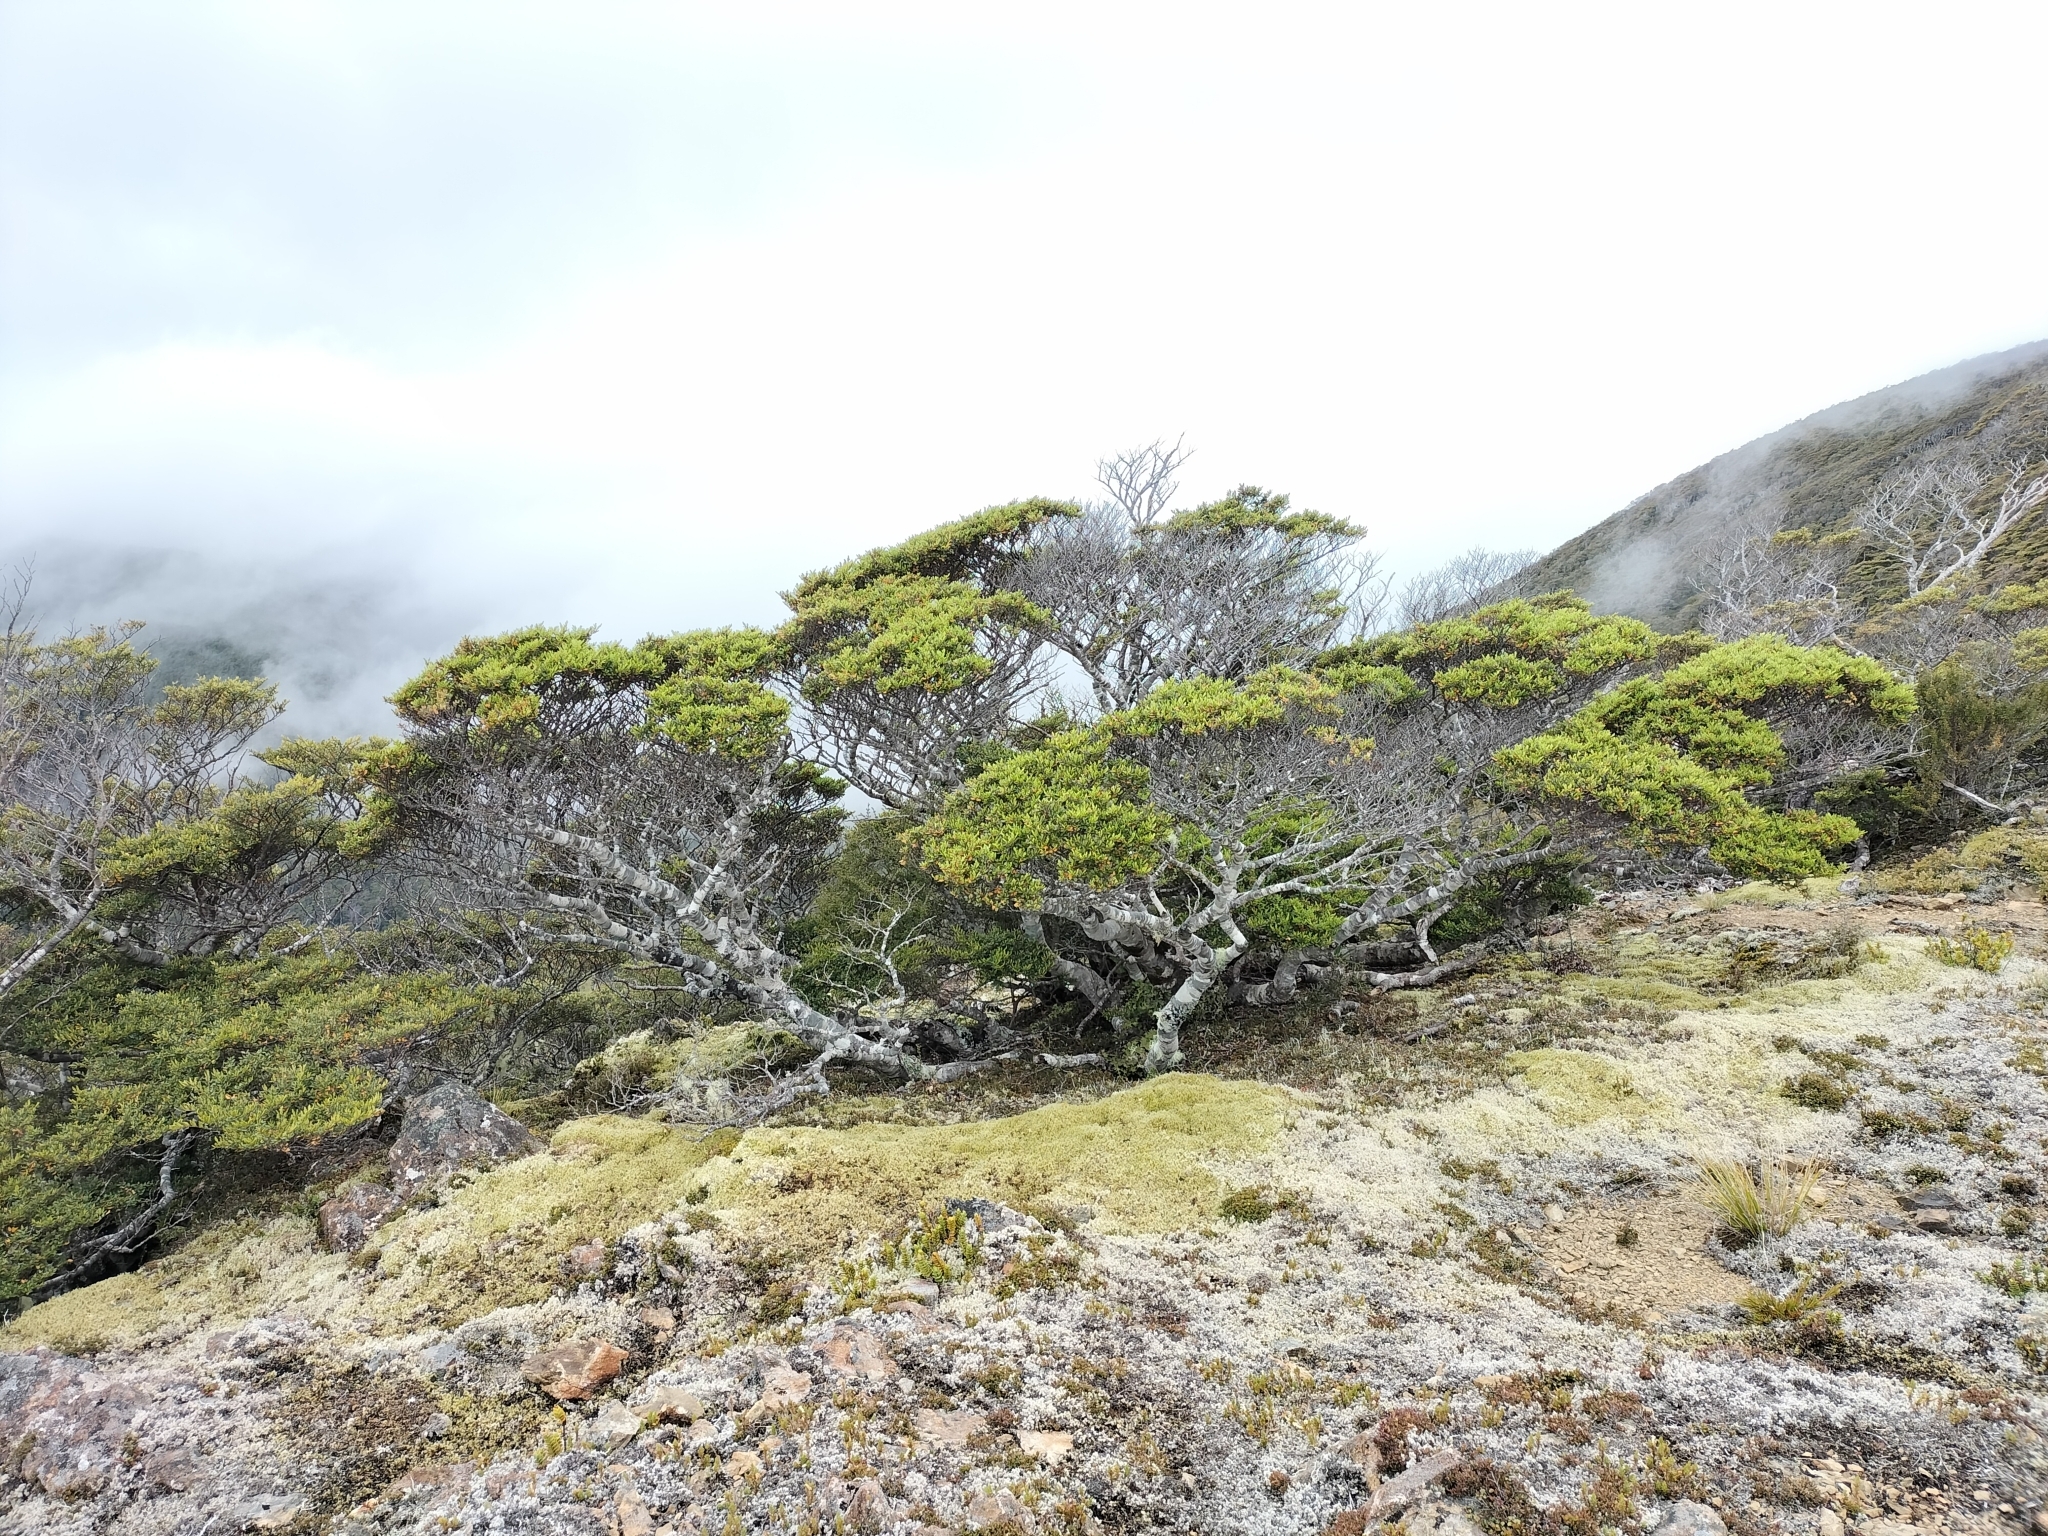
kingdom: Plantae
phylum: Tracheophyta
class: Magnoliopsida
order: Fagales
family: Nothofagaceae
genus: Nothofagus
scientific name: Nothofagus cliffortioides
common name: Mountain beech
